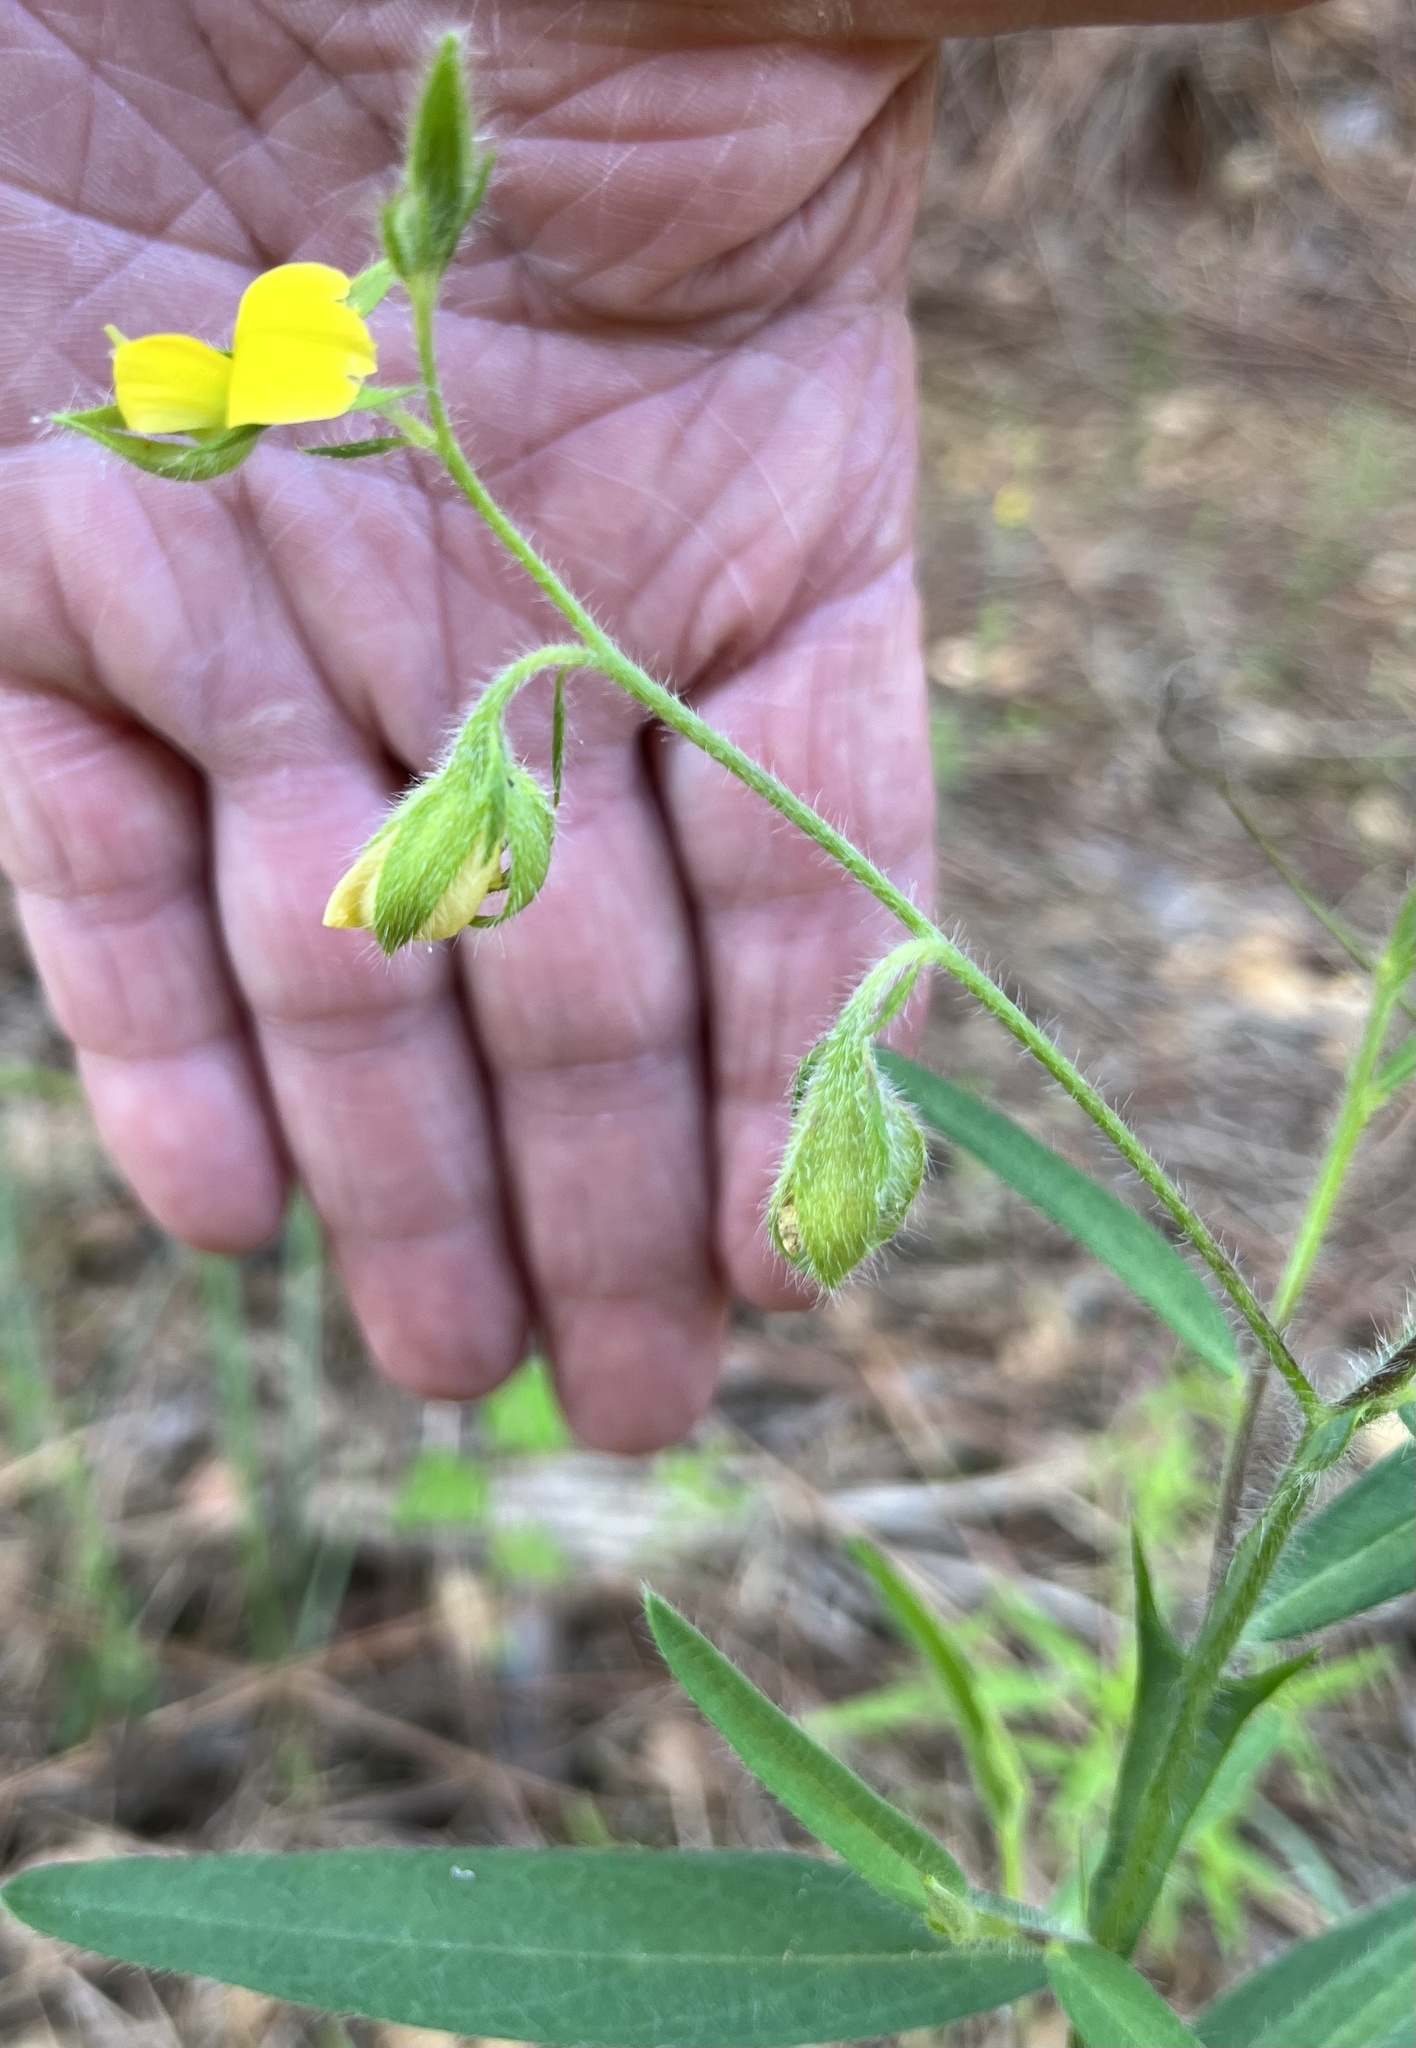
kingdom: Plantae
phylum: Tracheophyta
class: Magnoliopsida
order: Fabales
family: Fabaceae
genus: Crotalaria
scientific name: Crotalaria sagittalis
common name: Arrowhead rattlebox
